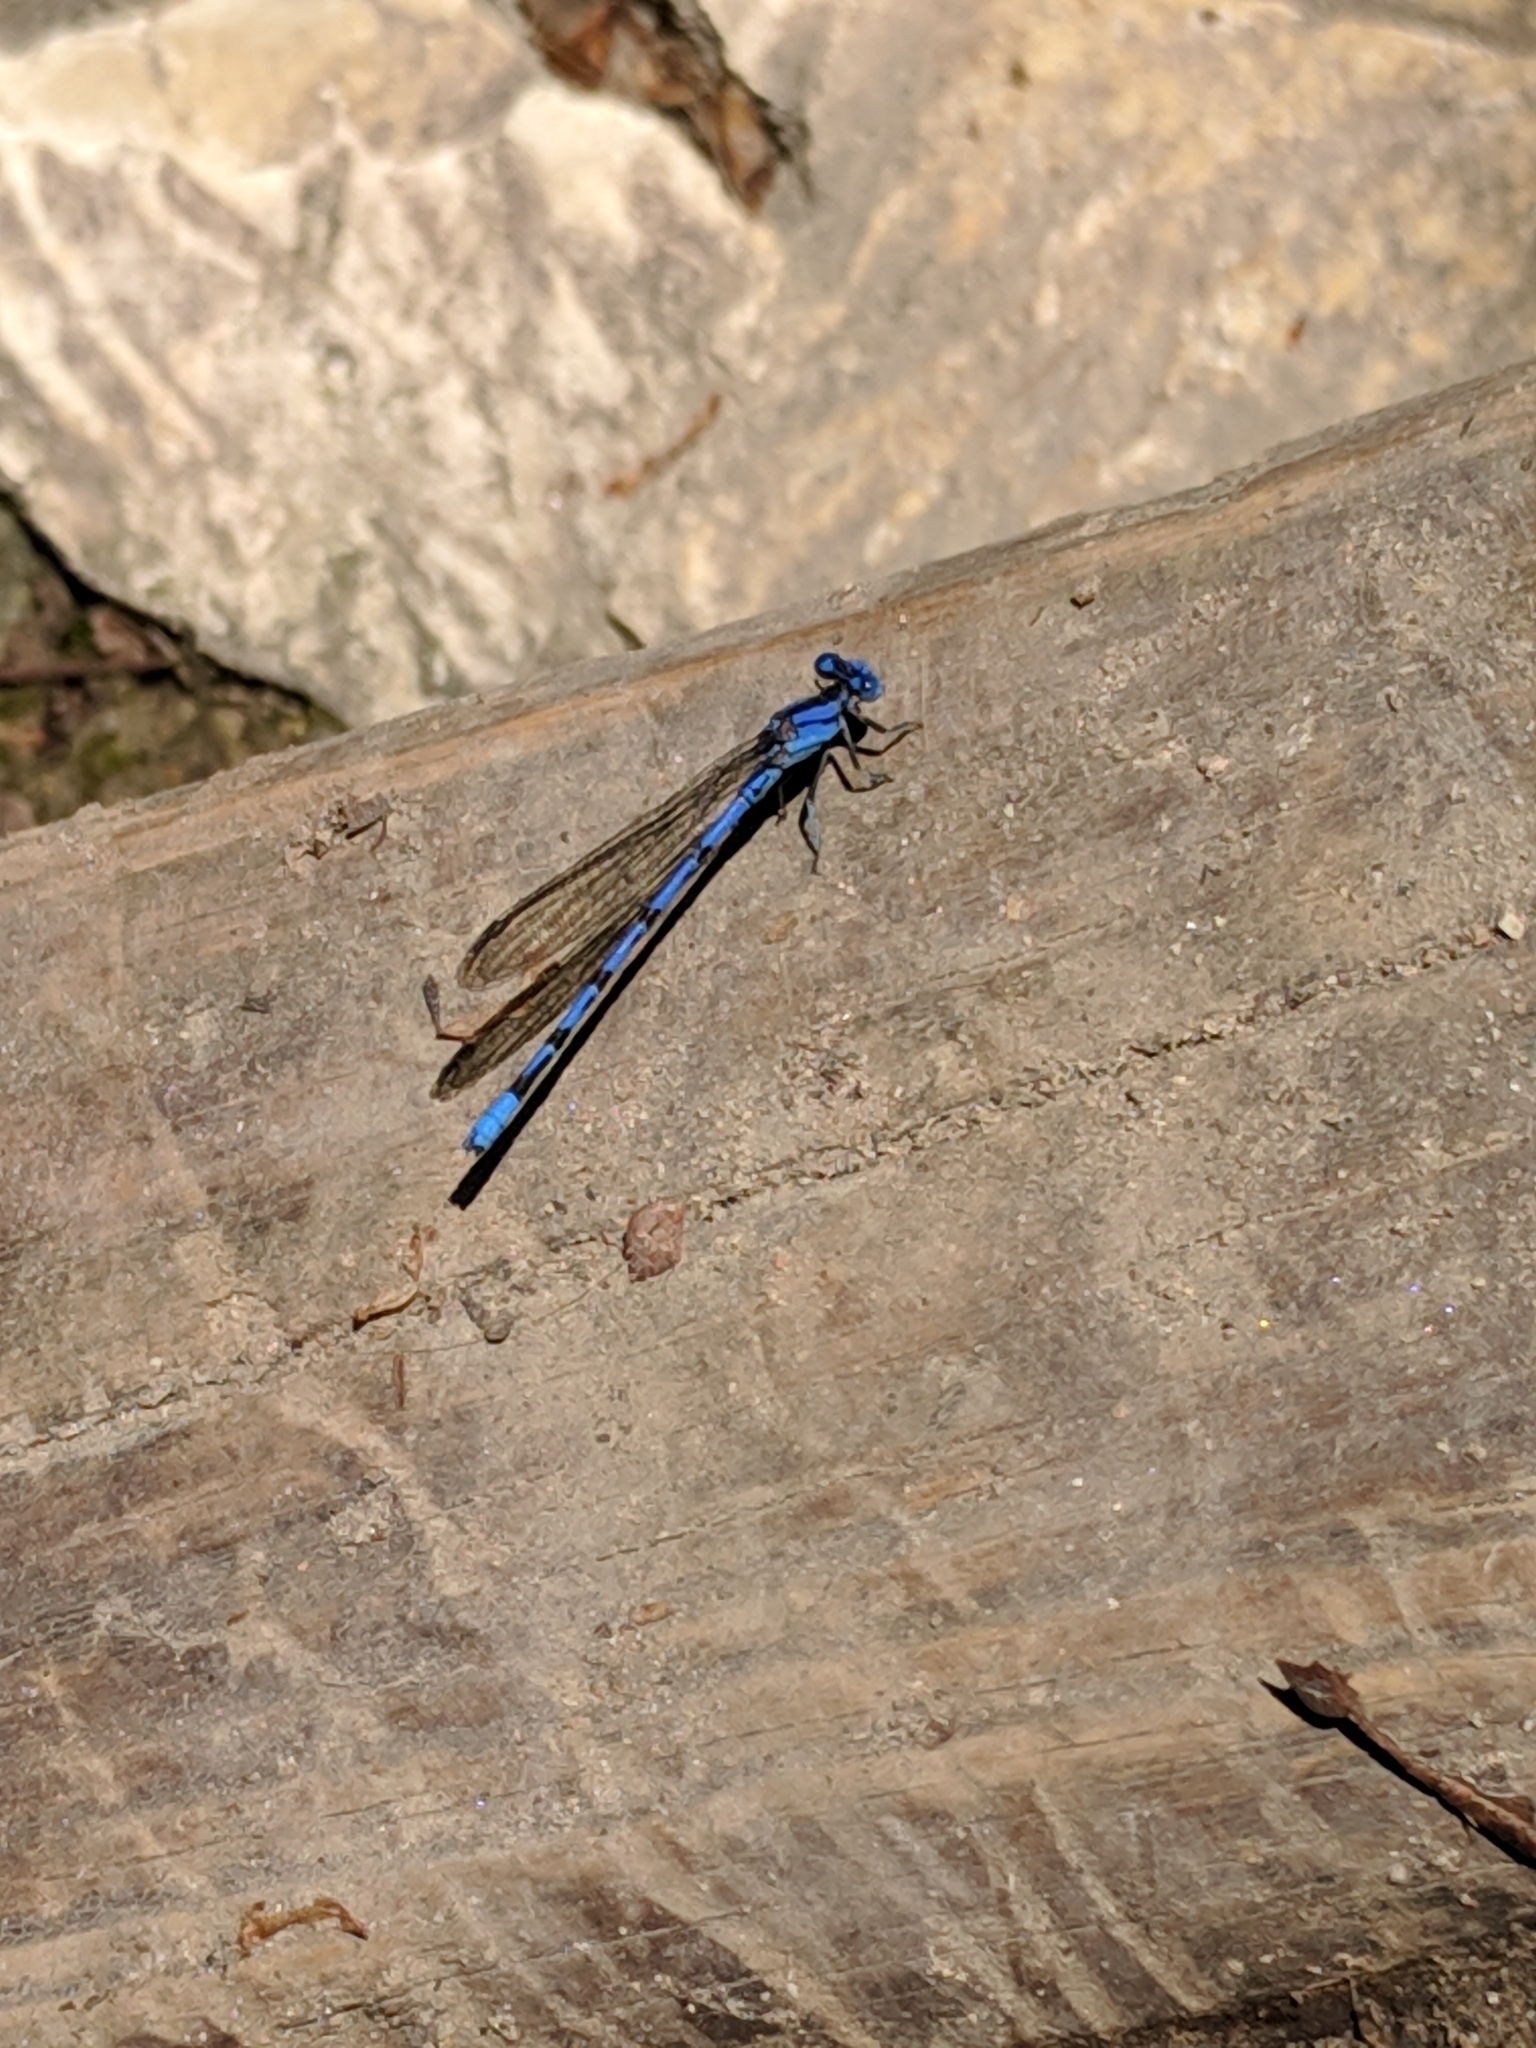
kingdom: Animalia
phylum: Arthropoda
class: Insecta
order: Odonata
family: Coenagrionidae
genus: Argia
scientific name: Argia funebris
